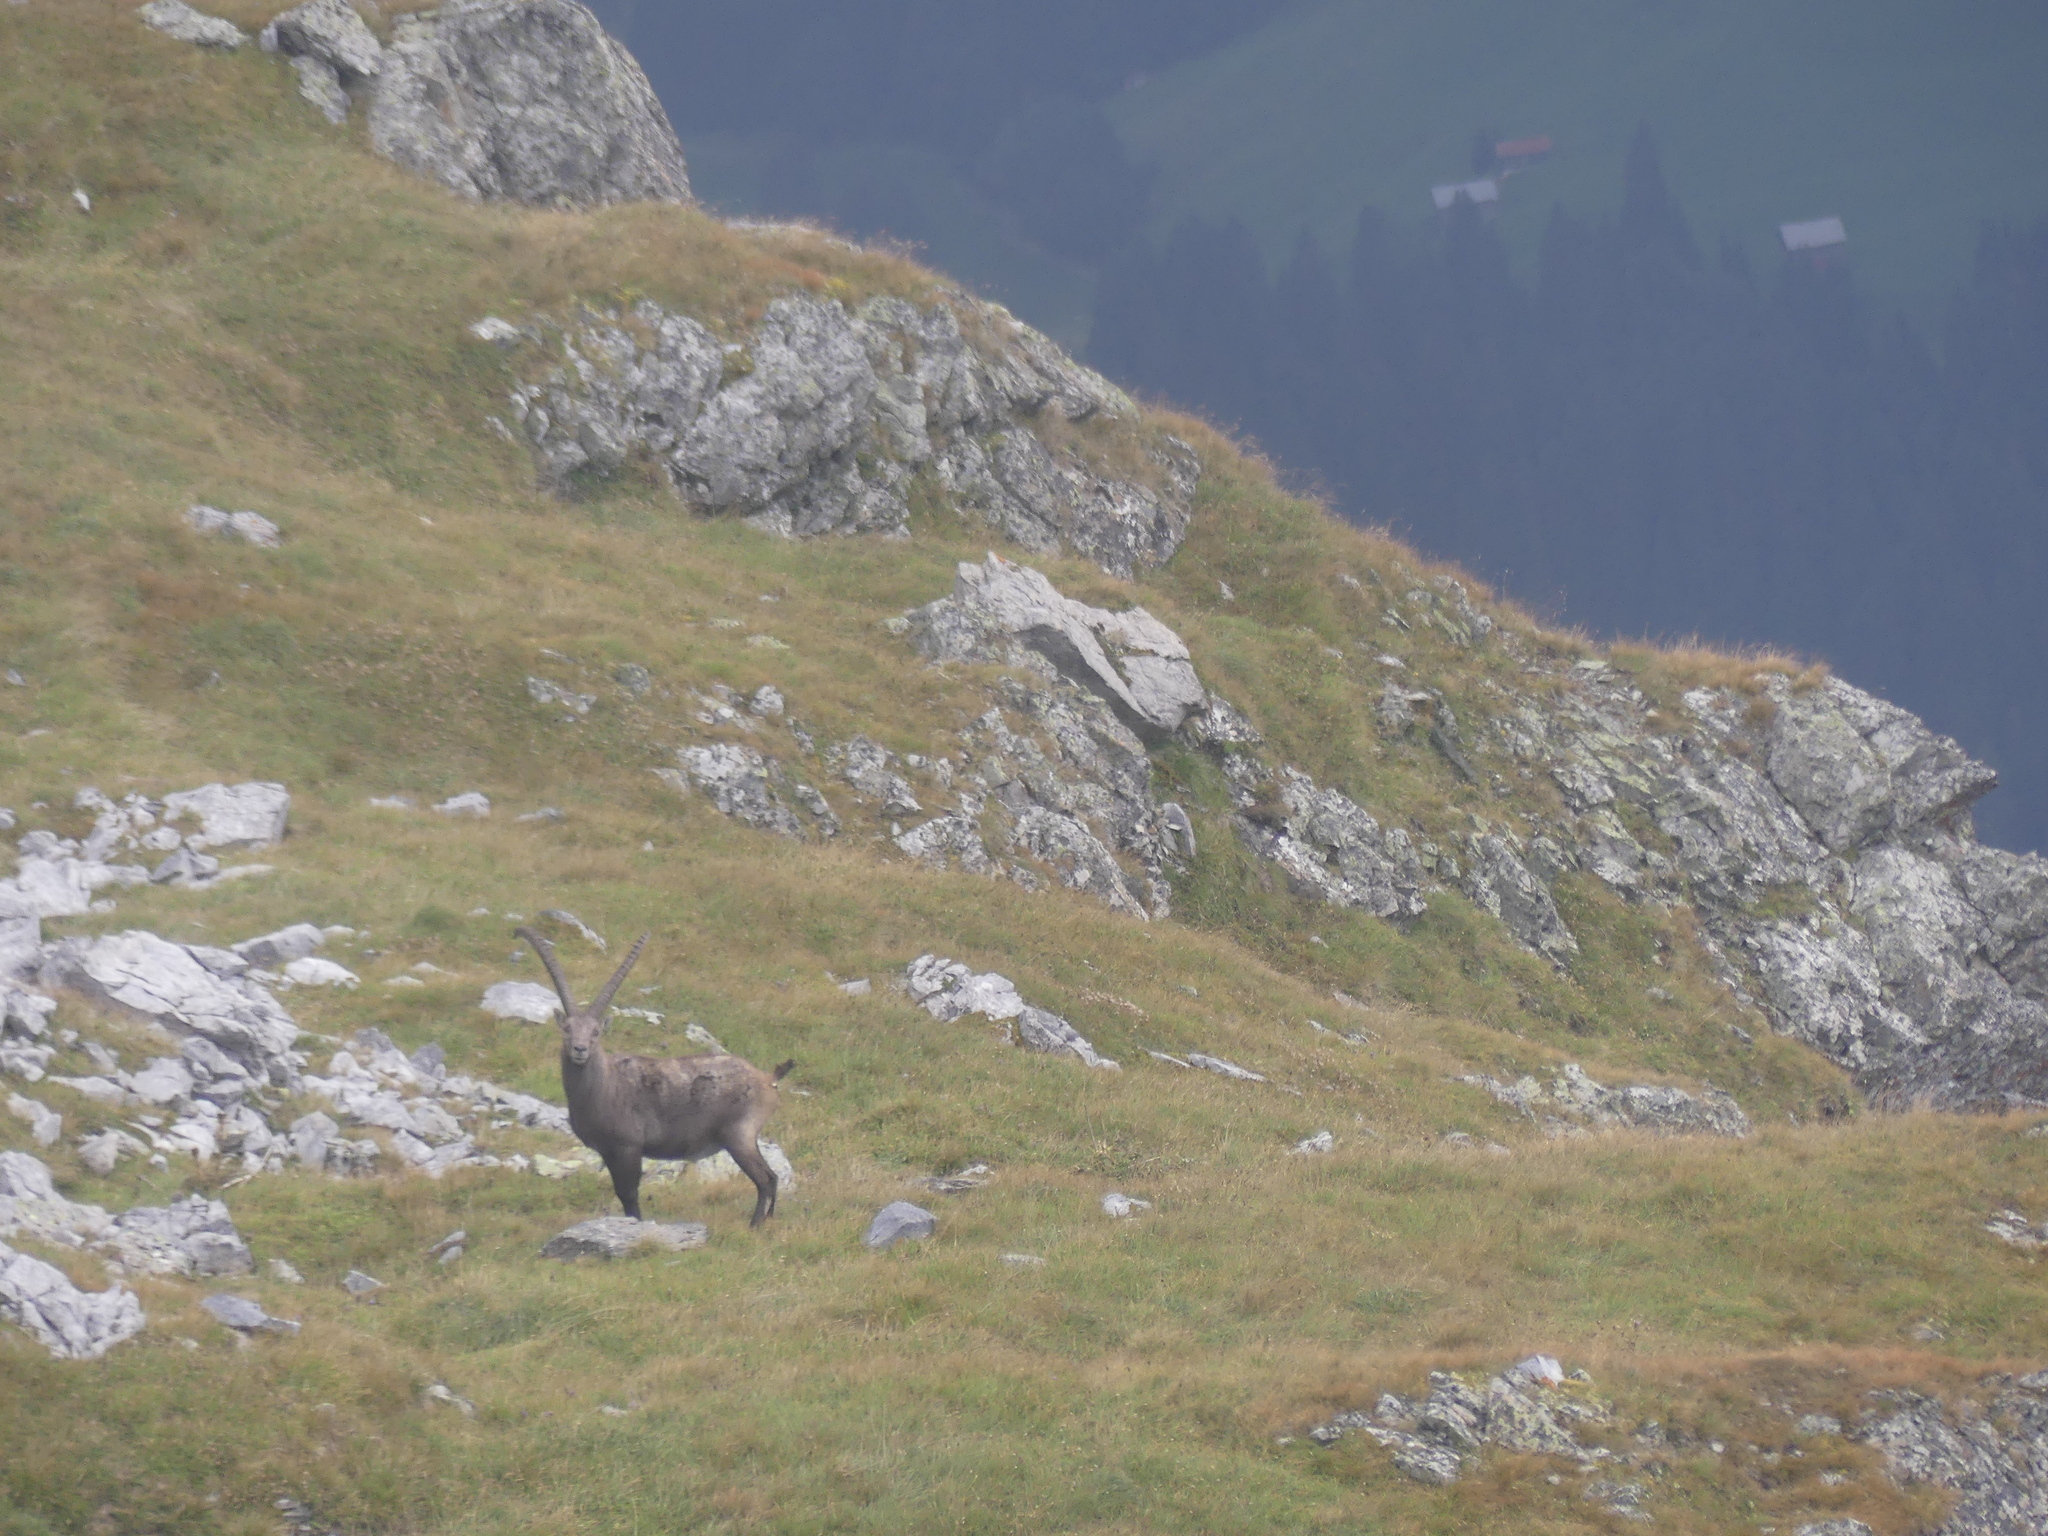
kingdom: Animalia
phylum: Chordata
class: Mammalia
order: Artiodactyla
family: Bovidae
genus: Capra
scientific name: Capra ibex
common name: Alpine ibex
